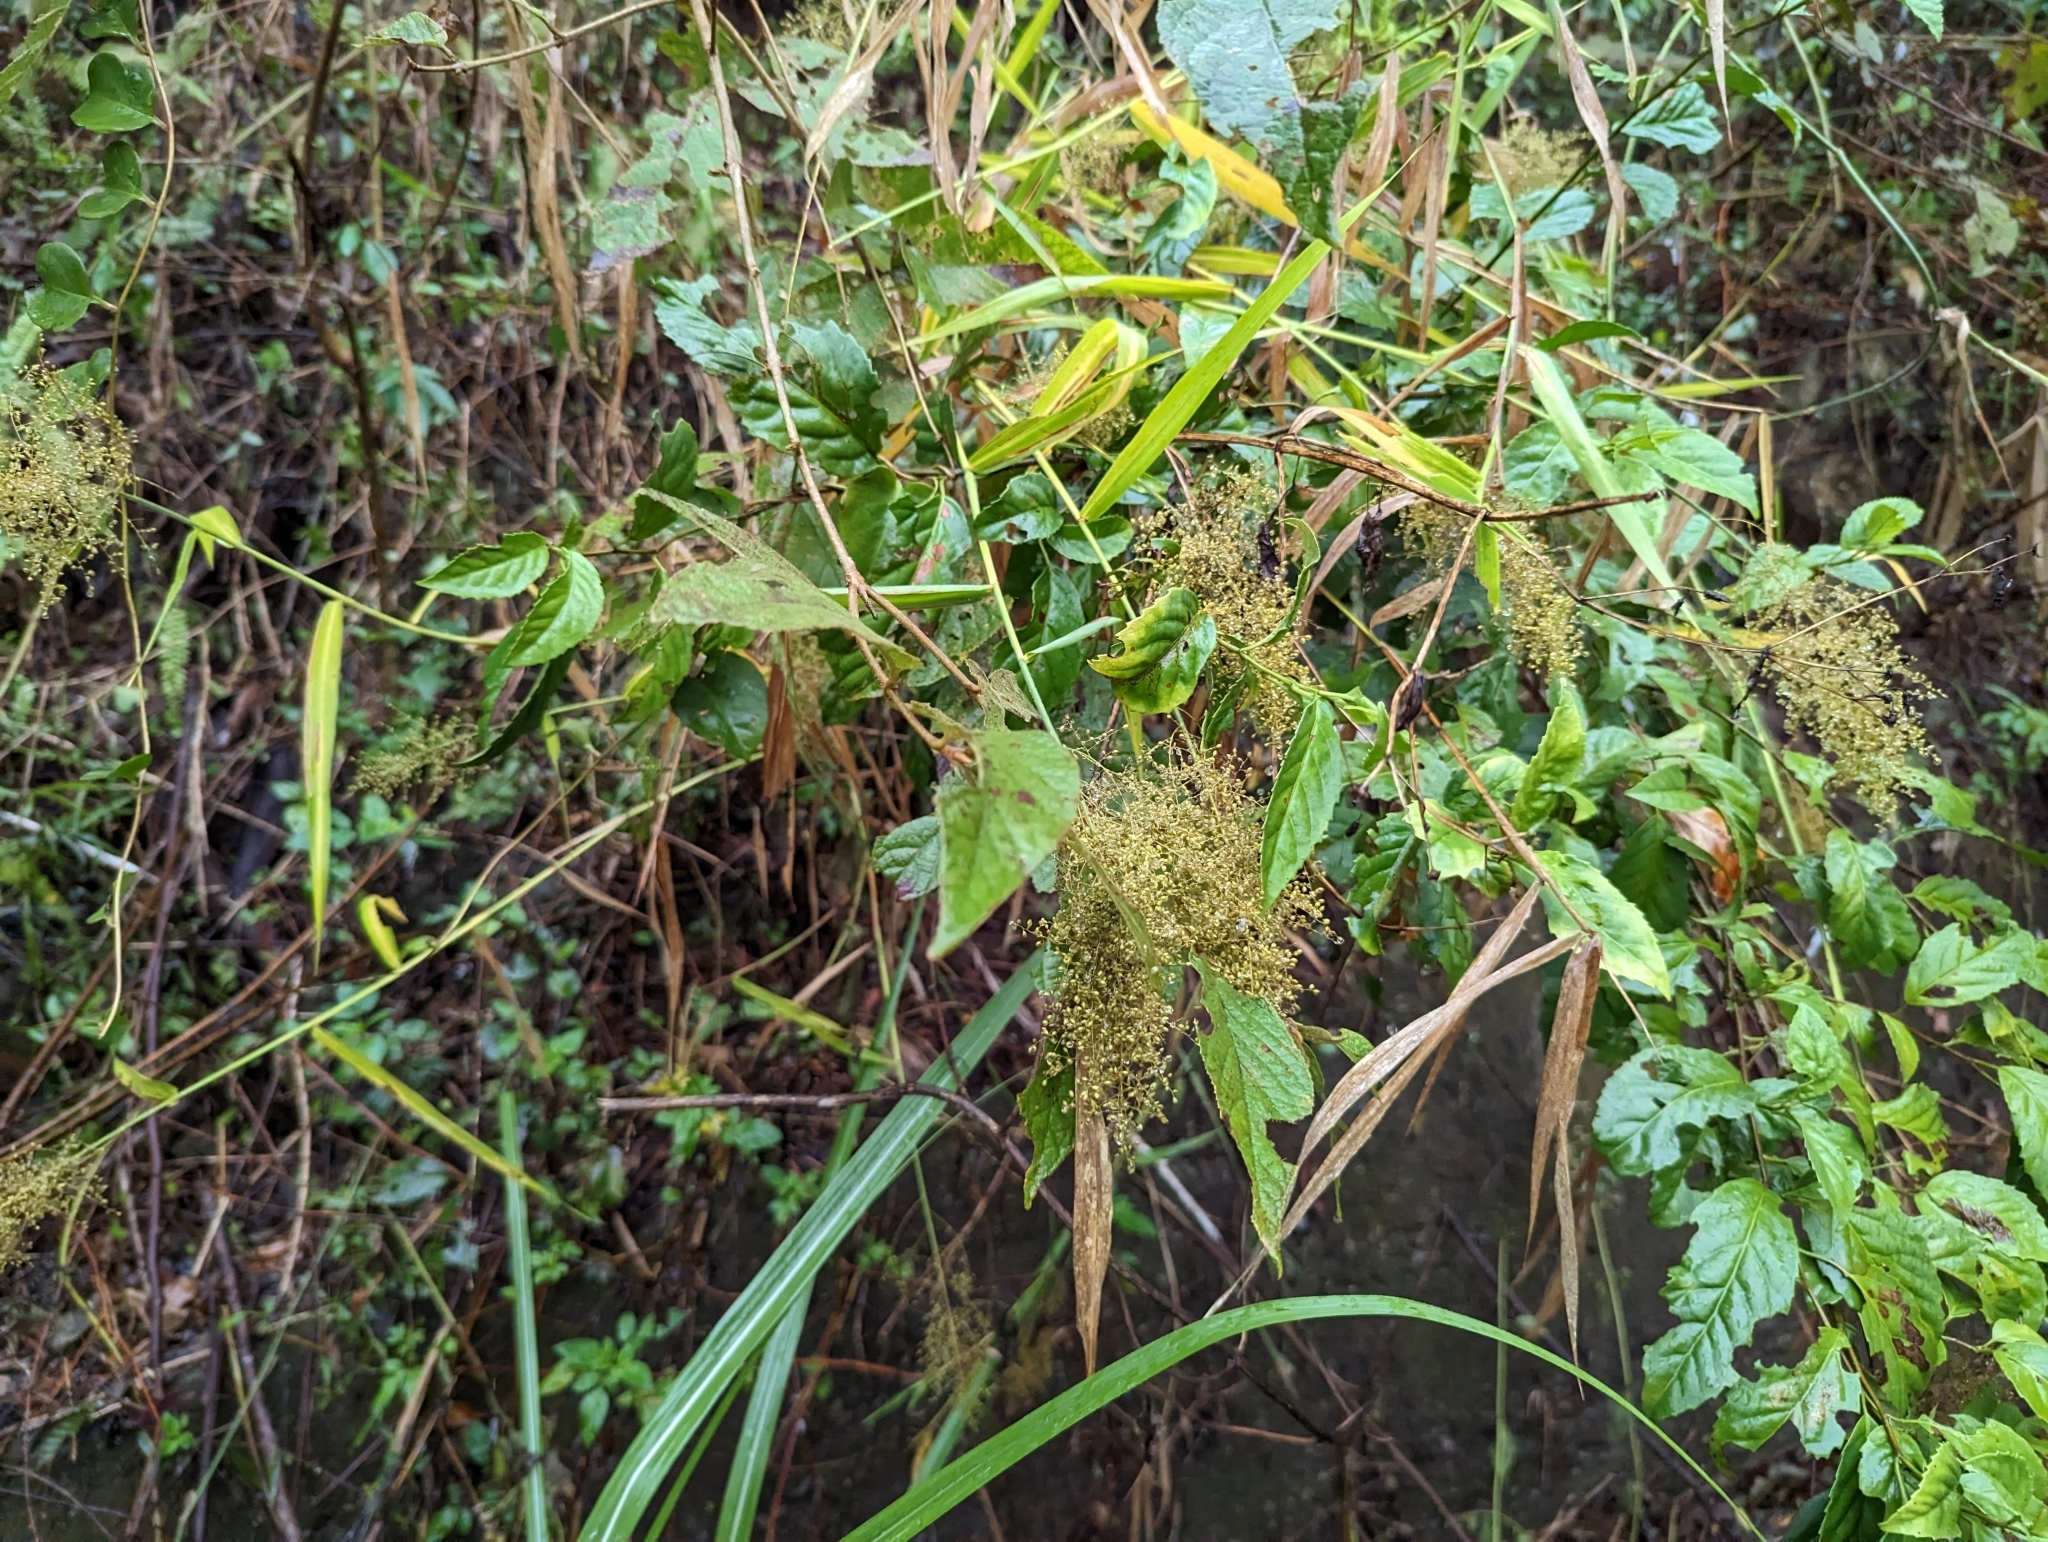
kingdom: Plantae
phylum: Tracheophyta
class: Liliopsida
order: Poales
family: Poaceae
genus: Panicum
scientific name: Panicum sarmentosum
